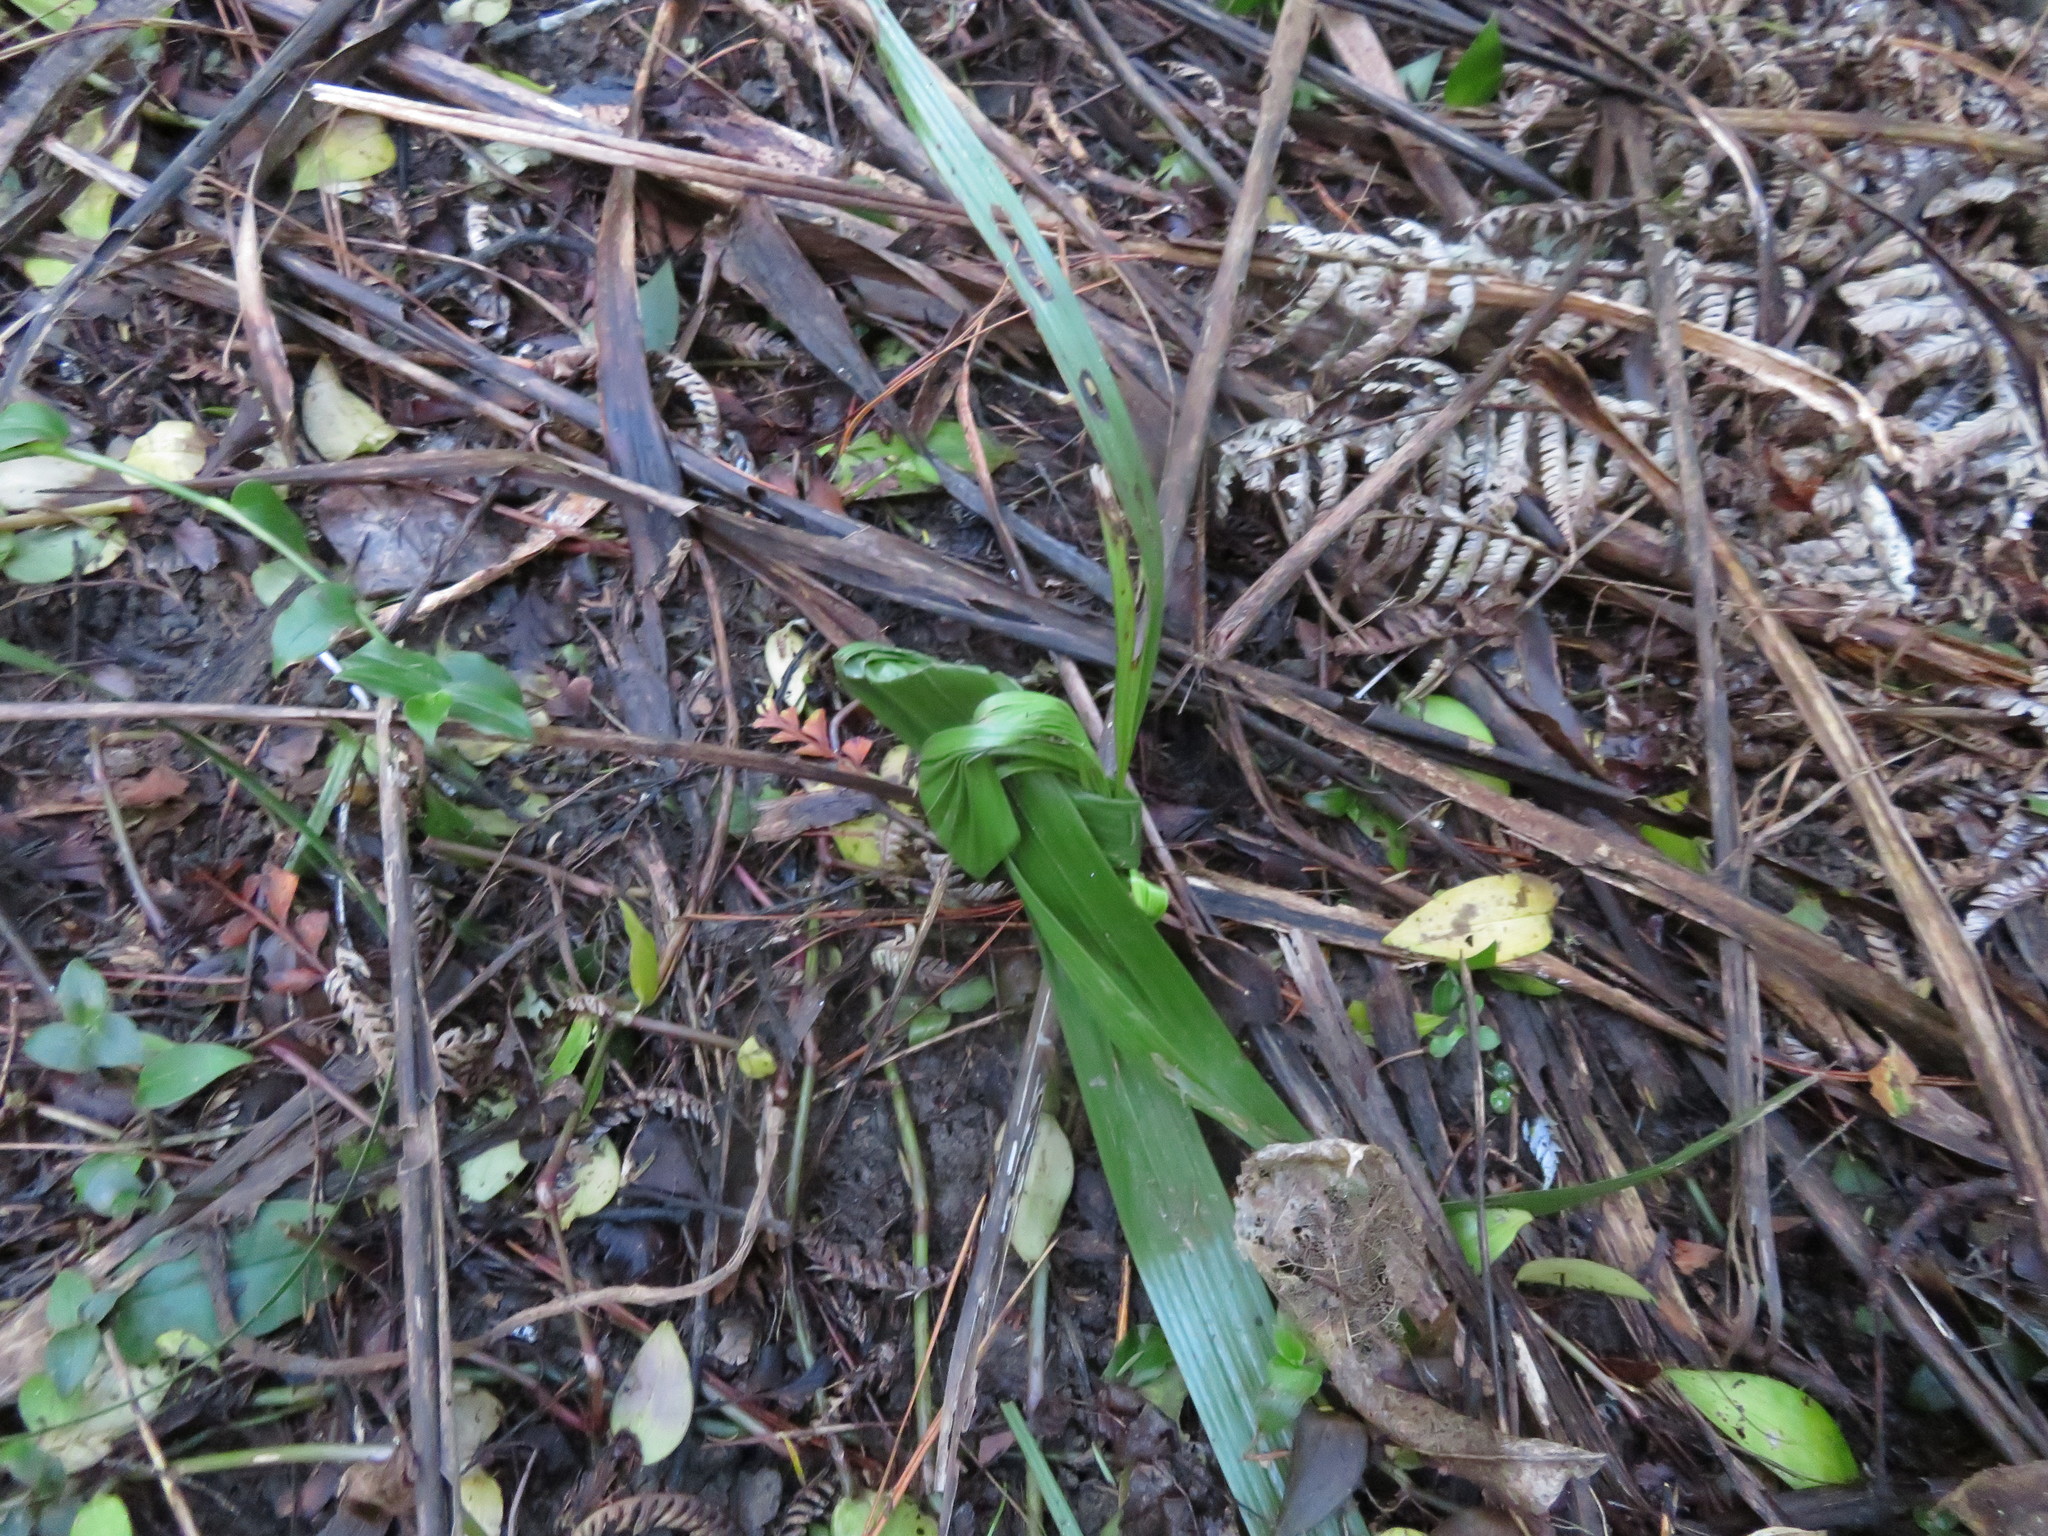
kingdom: Plantae
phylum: Tracheophyta
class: Liliopsida
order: Arecales
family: Arecaceae
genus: Phoenix
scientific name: Phoenix canariensis
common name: Canary island date palm
